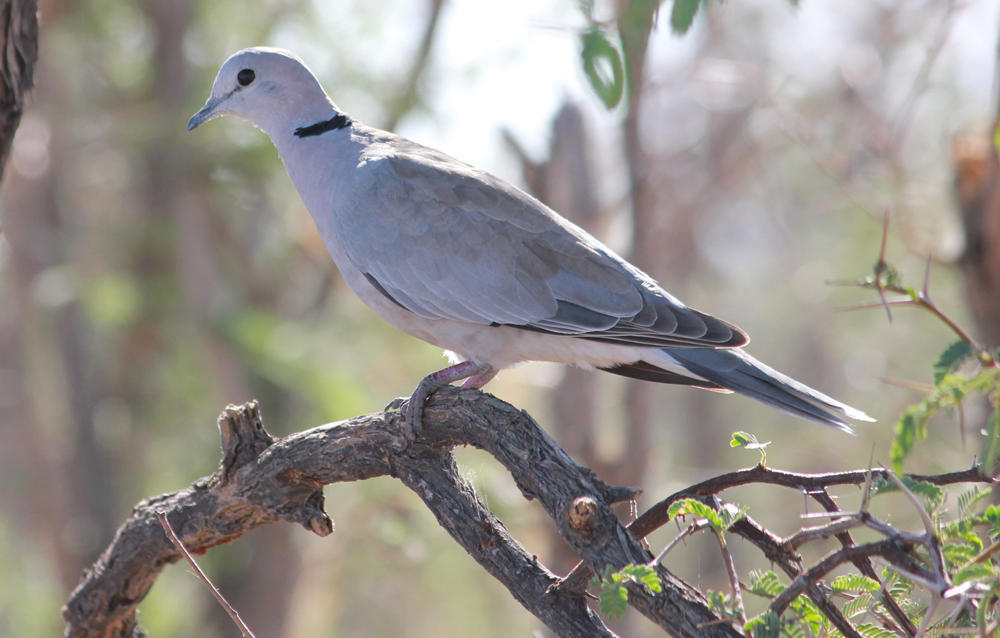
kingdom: Animalia
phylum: Chordata
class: Aves
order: Columbiformes
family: Columbidae
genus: Streptopelia
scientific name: Streptopelia capicola
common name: Ring-necked dove
